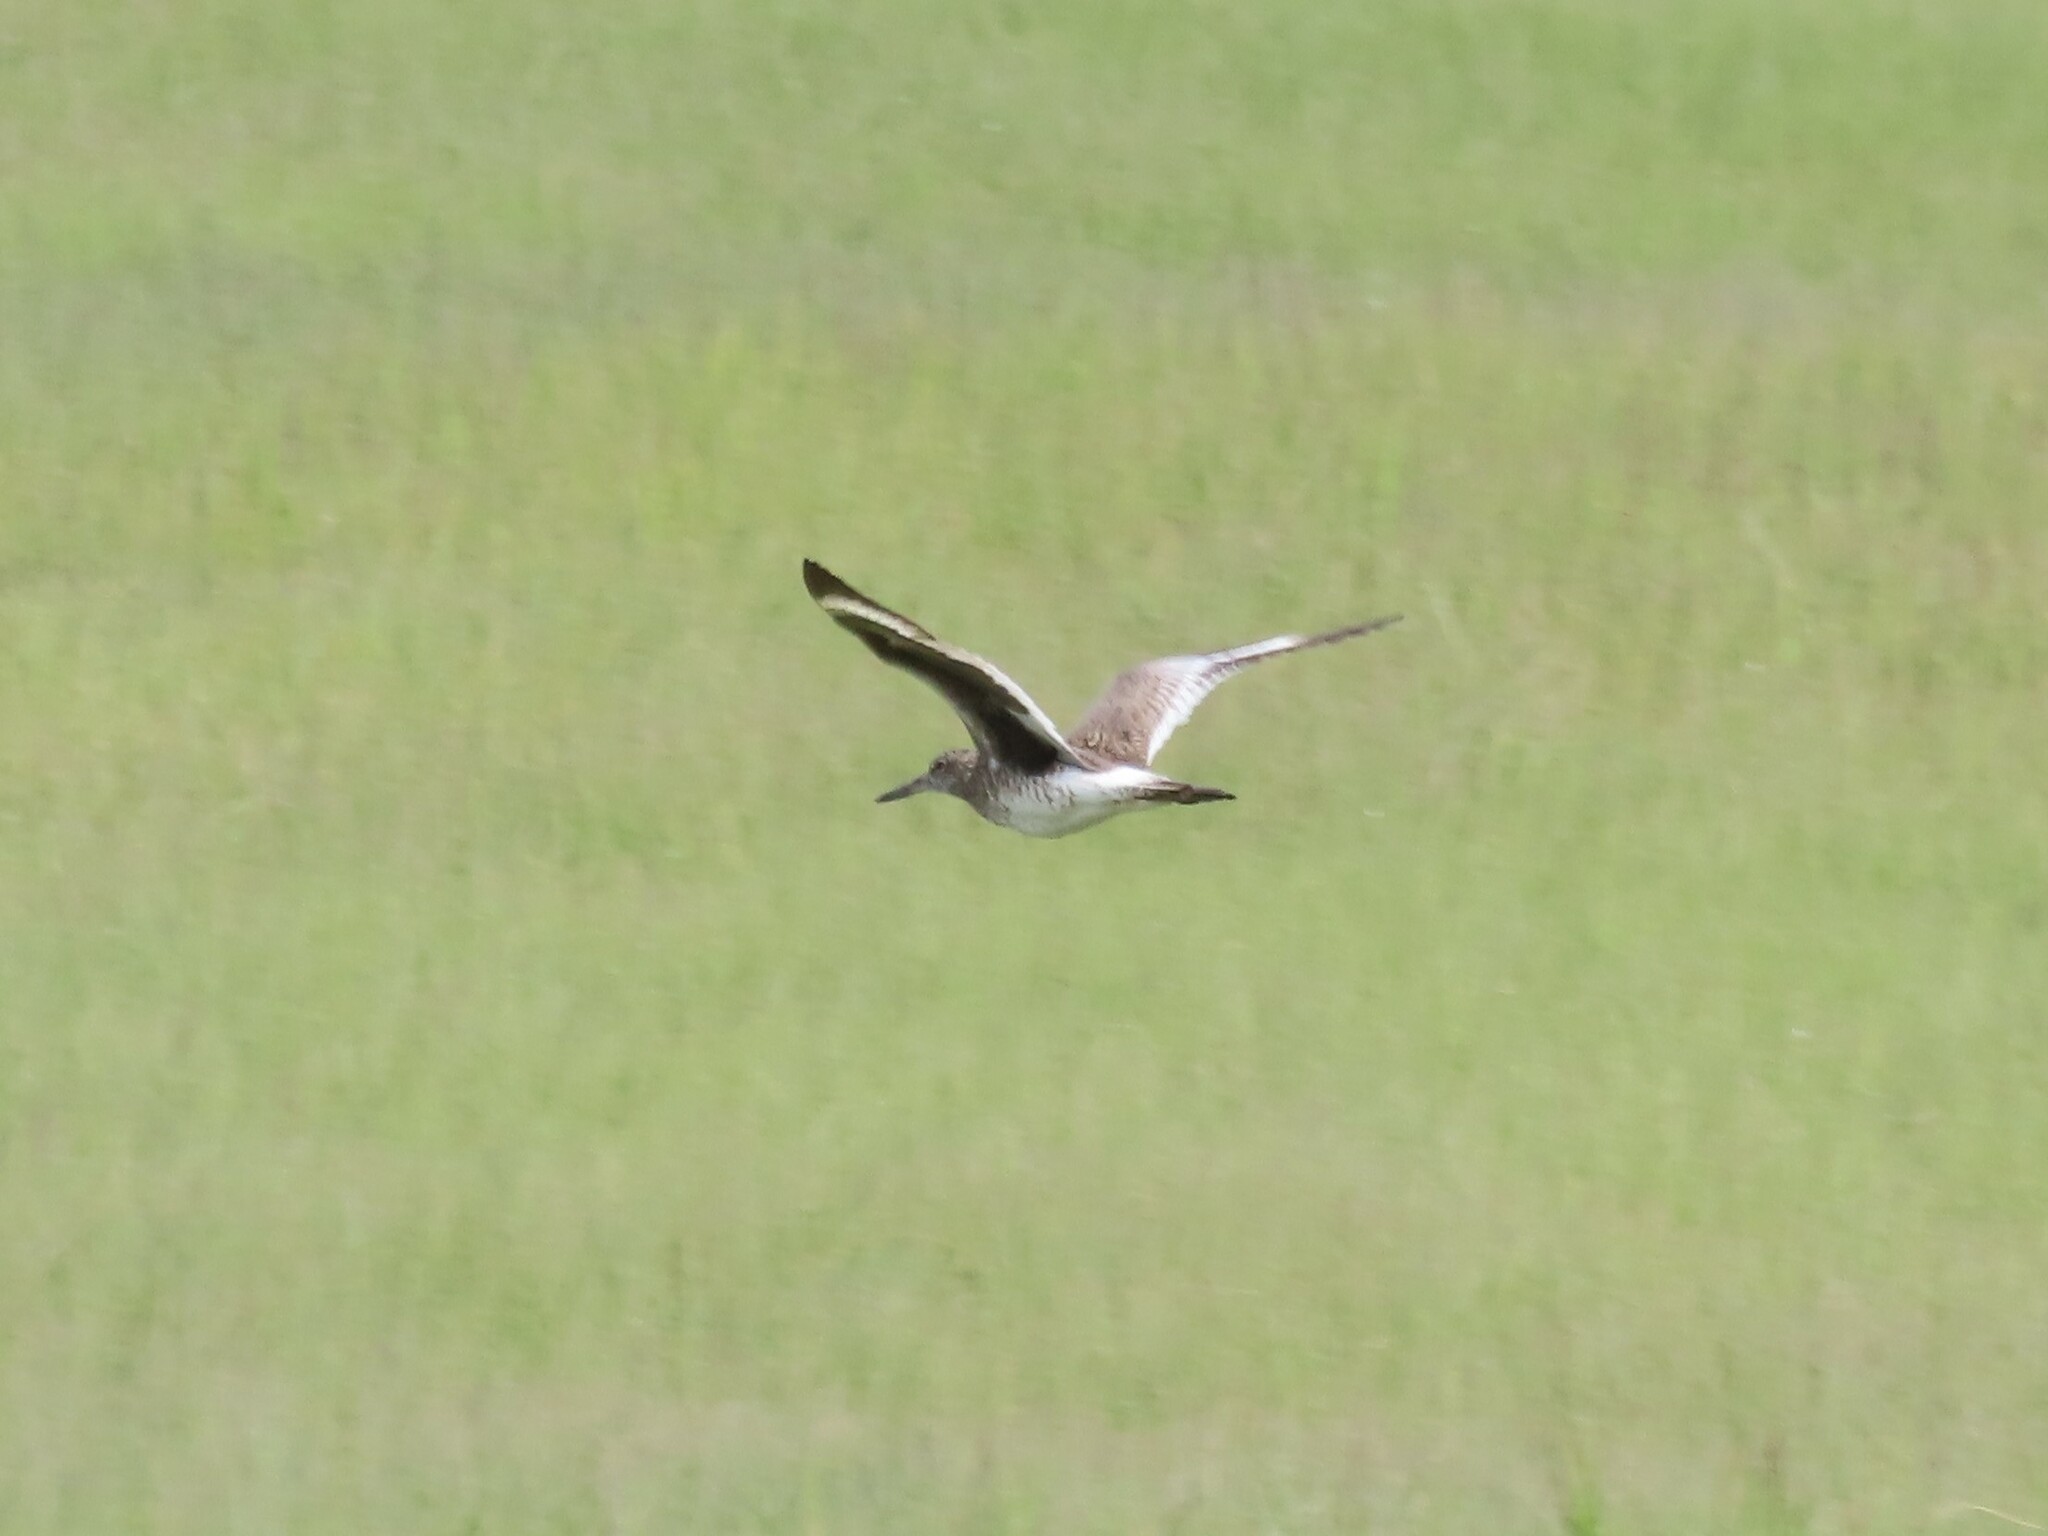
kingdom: Animalia
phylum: Chordata
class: Aves
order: Charadriiformes
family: Scolopacidae
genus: Tringa
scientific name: Tringa semipalmata
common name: Willet
